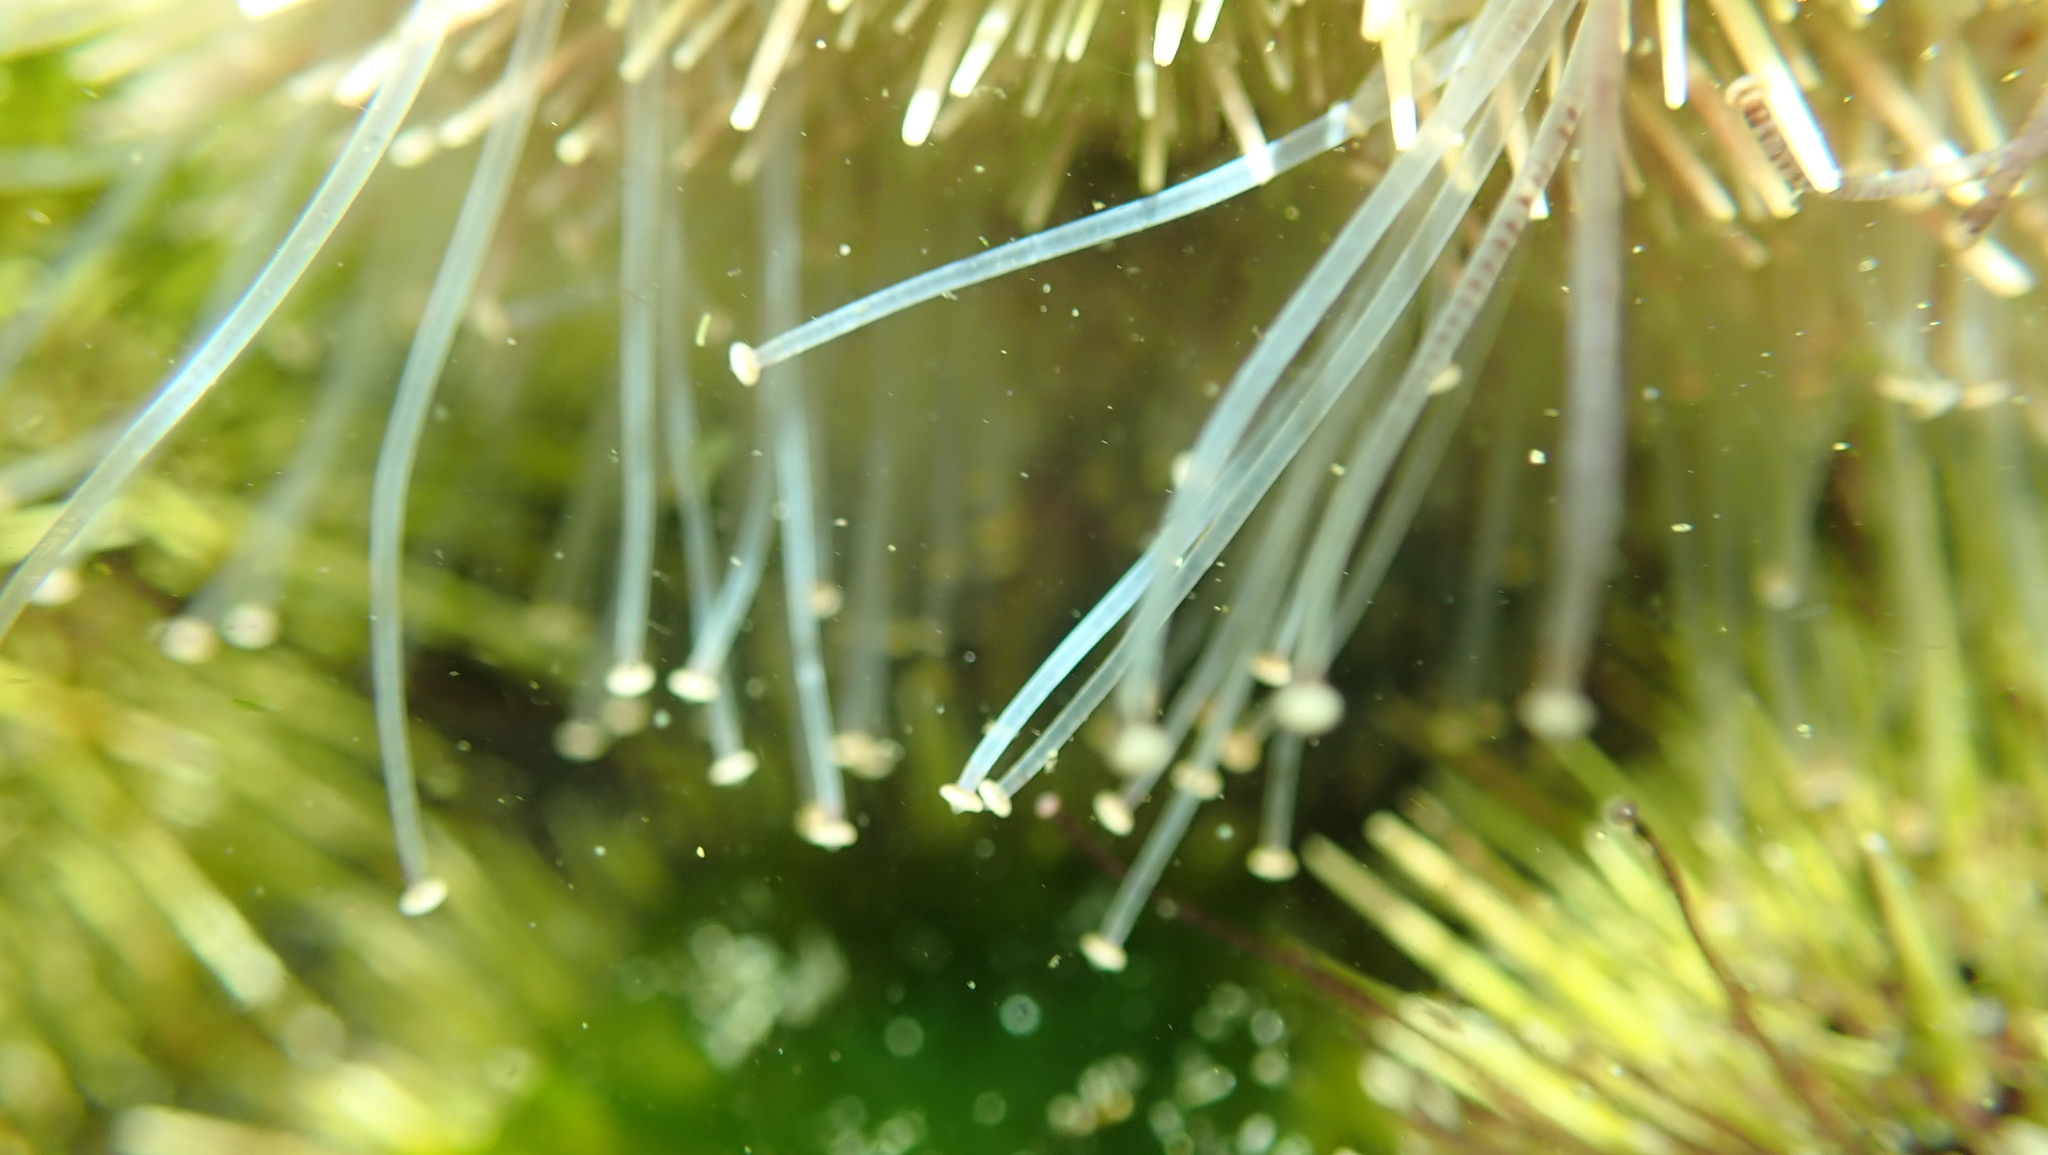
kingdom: Animalia
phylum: Echinodermata
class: Echinoidea
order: Camarodonta
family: Strongylocentrotidae
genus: Strongylocentrotus
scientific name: Strongylocentrotus droebachiensis
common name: Northern sea urchin
